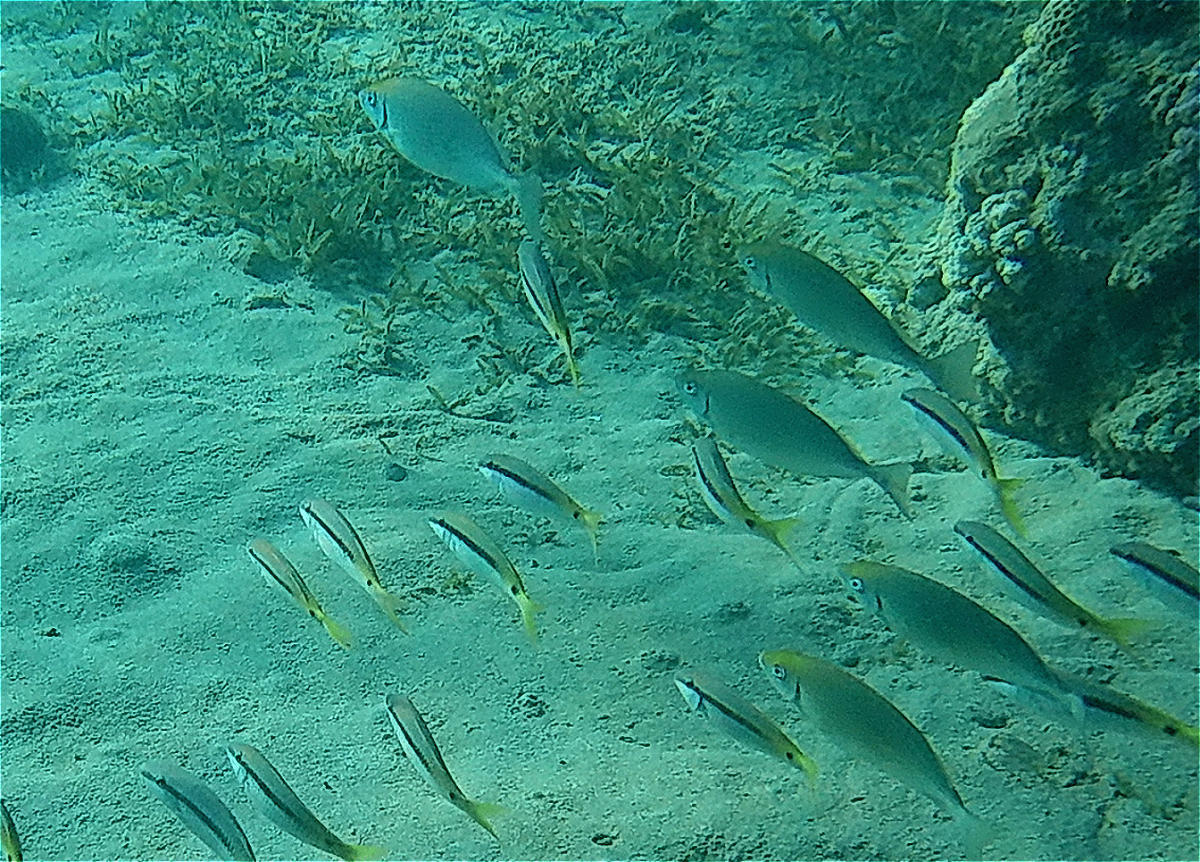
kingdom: Animalia
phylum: Chordata
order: Perciformes
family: Siganidae
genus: Siganus
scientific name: Siganus rivulatus
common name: Marbled spinefoot
